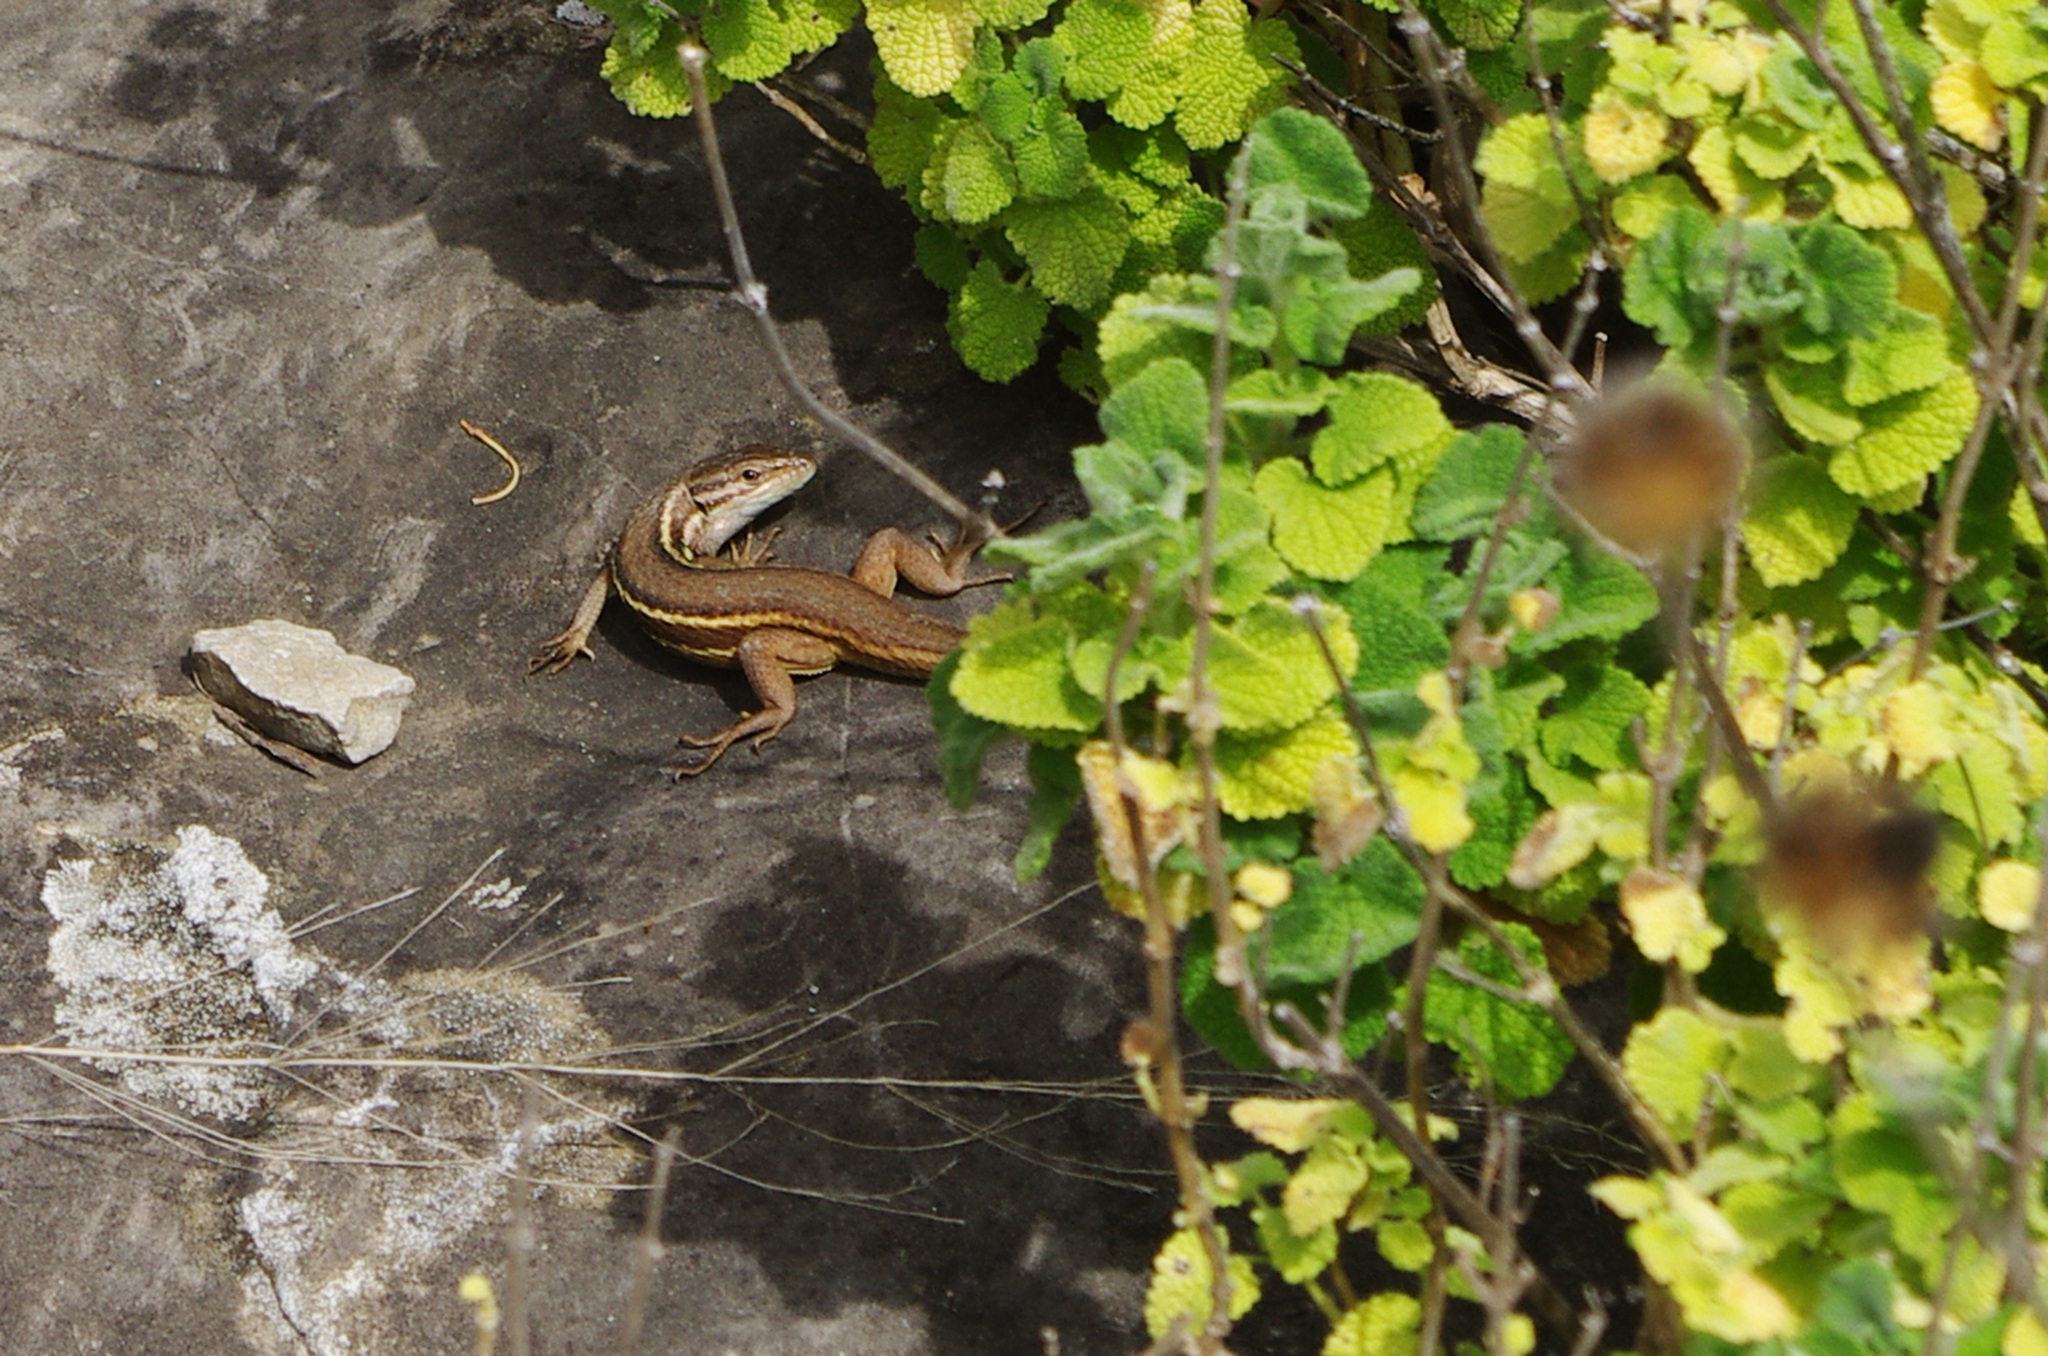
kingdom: Animalia
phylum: Chordata
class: Squamata
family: Lacertidae
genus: Psammodromus
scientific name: Psammodromus algirus
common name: Algerian psammodromus
